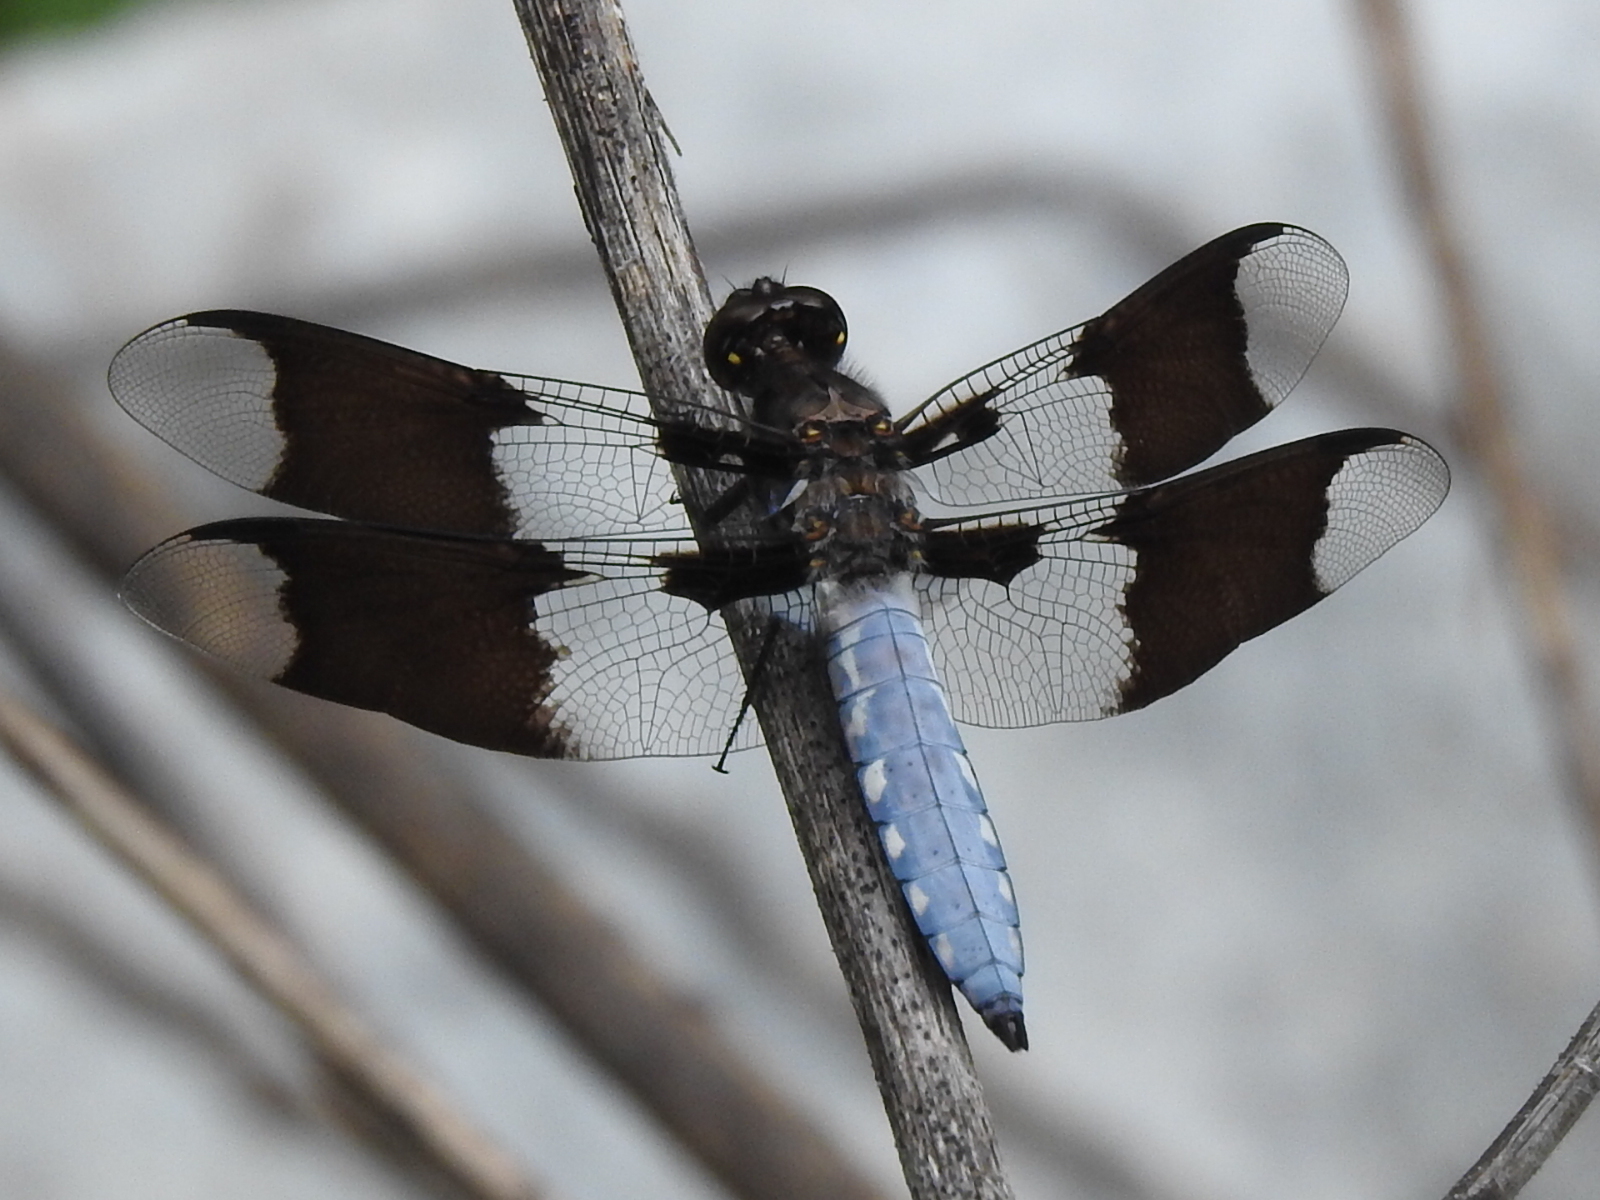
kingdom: Animalia
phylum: Arthropoda
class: Insecta
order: Odonata
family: Libellulidae
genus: Plathemis
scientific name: Plathemis lydia
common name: Common whitetail
